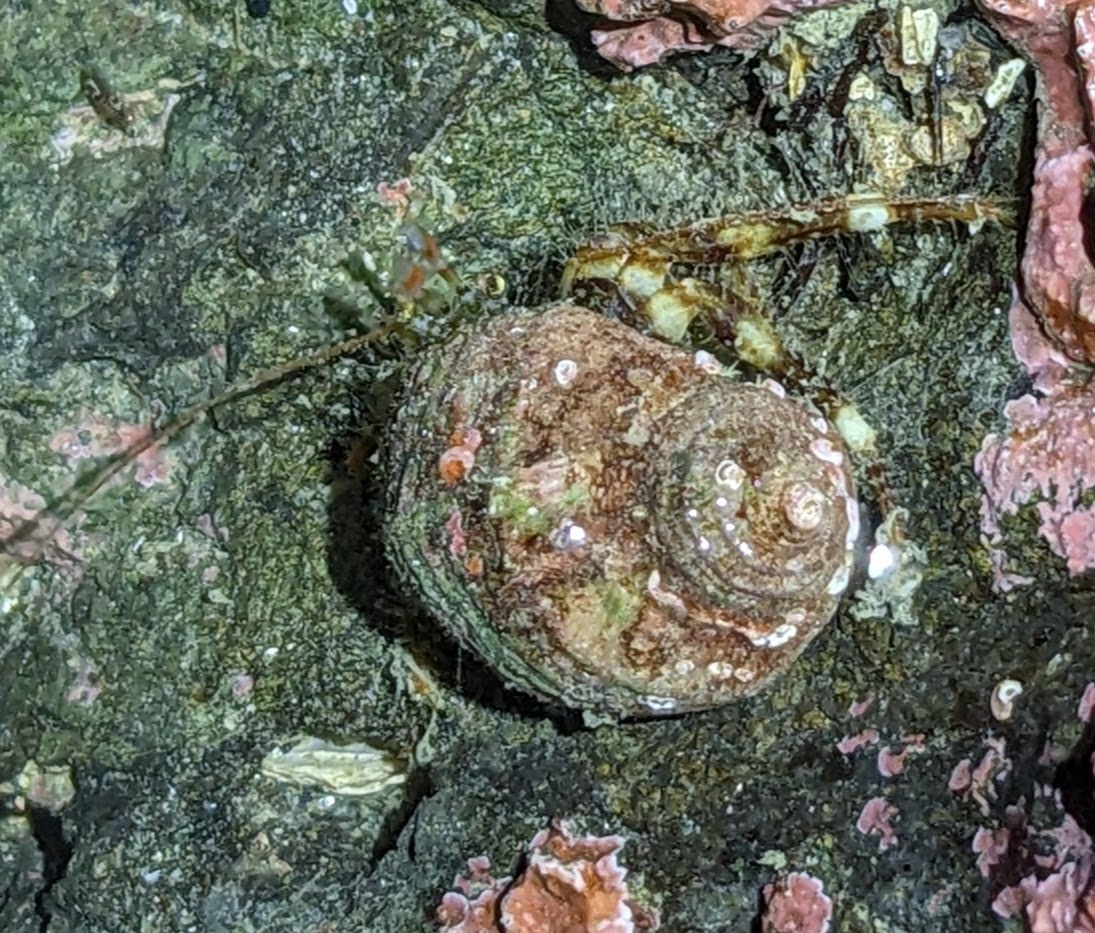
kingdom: Animalia
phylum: Arthropoda
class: Malacostraca
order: Decapoda
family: Paguridae
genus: Pagurus
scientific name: Pagurus caurinus
